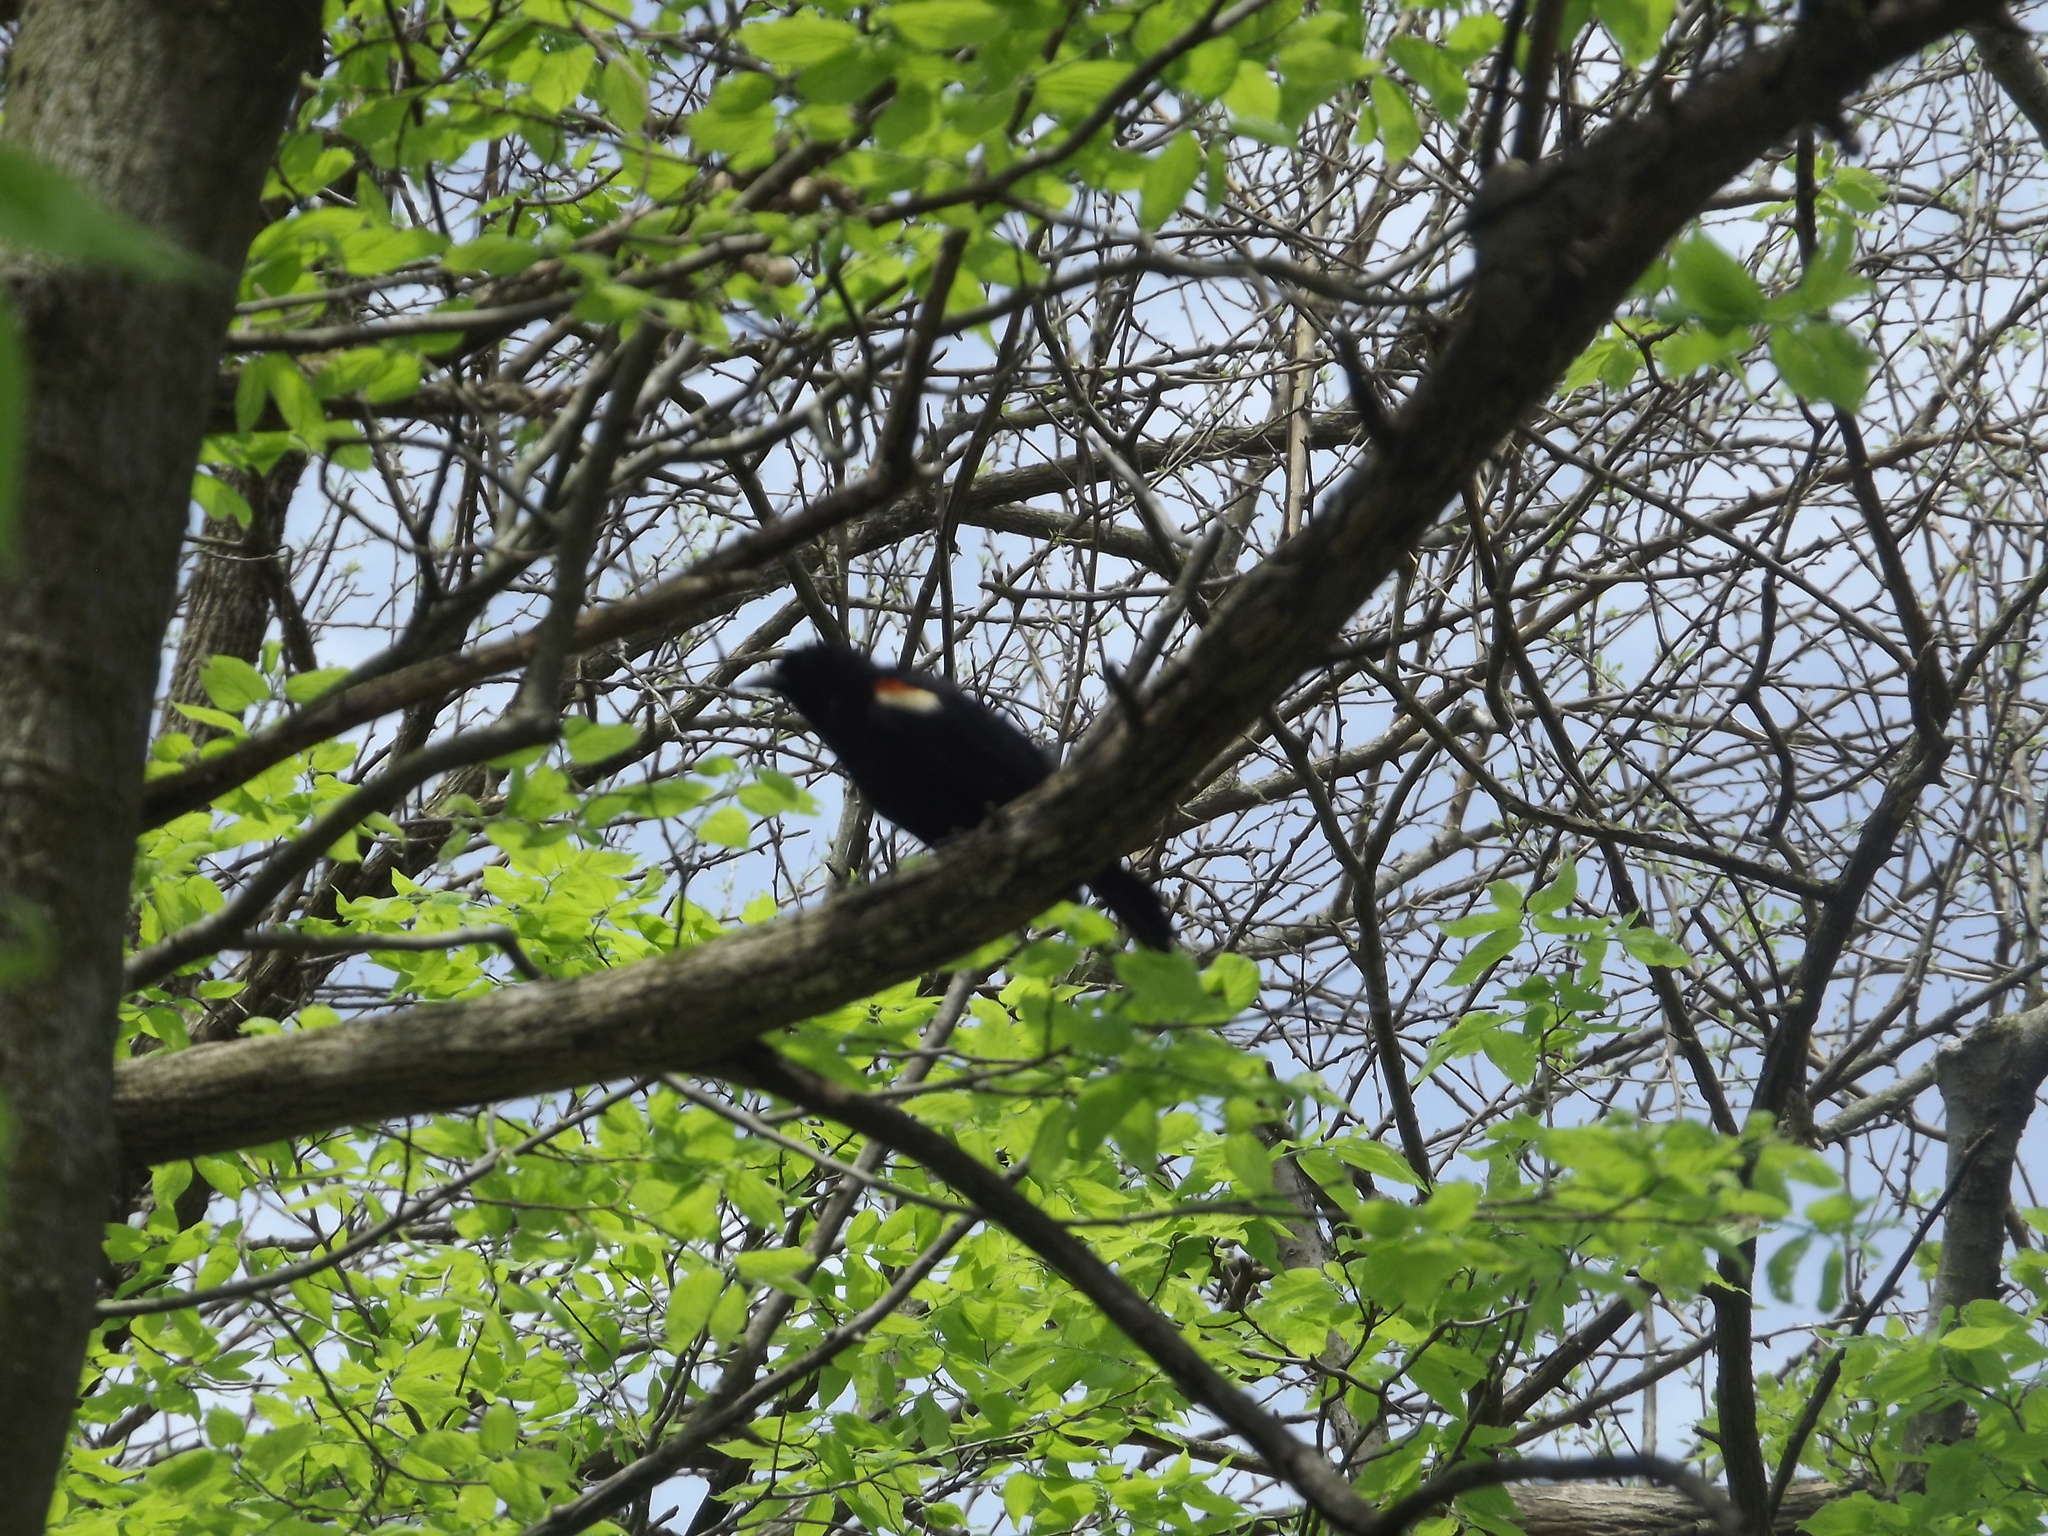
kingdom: Animalia
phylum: Chordata
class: Aves
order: Passeriformes
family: Icteridae
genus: Agelaius
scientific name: Agelaius phoeniceus
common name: Red-winged blackbird
